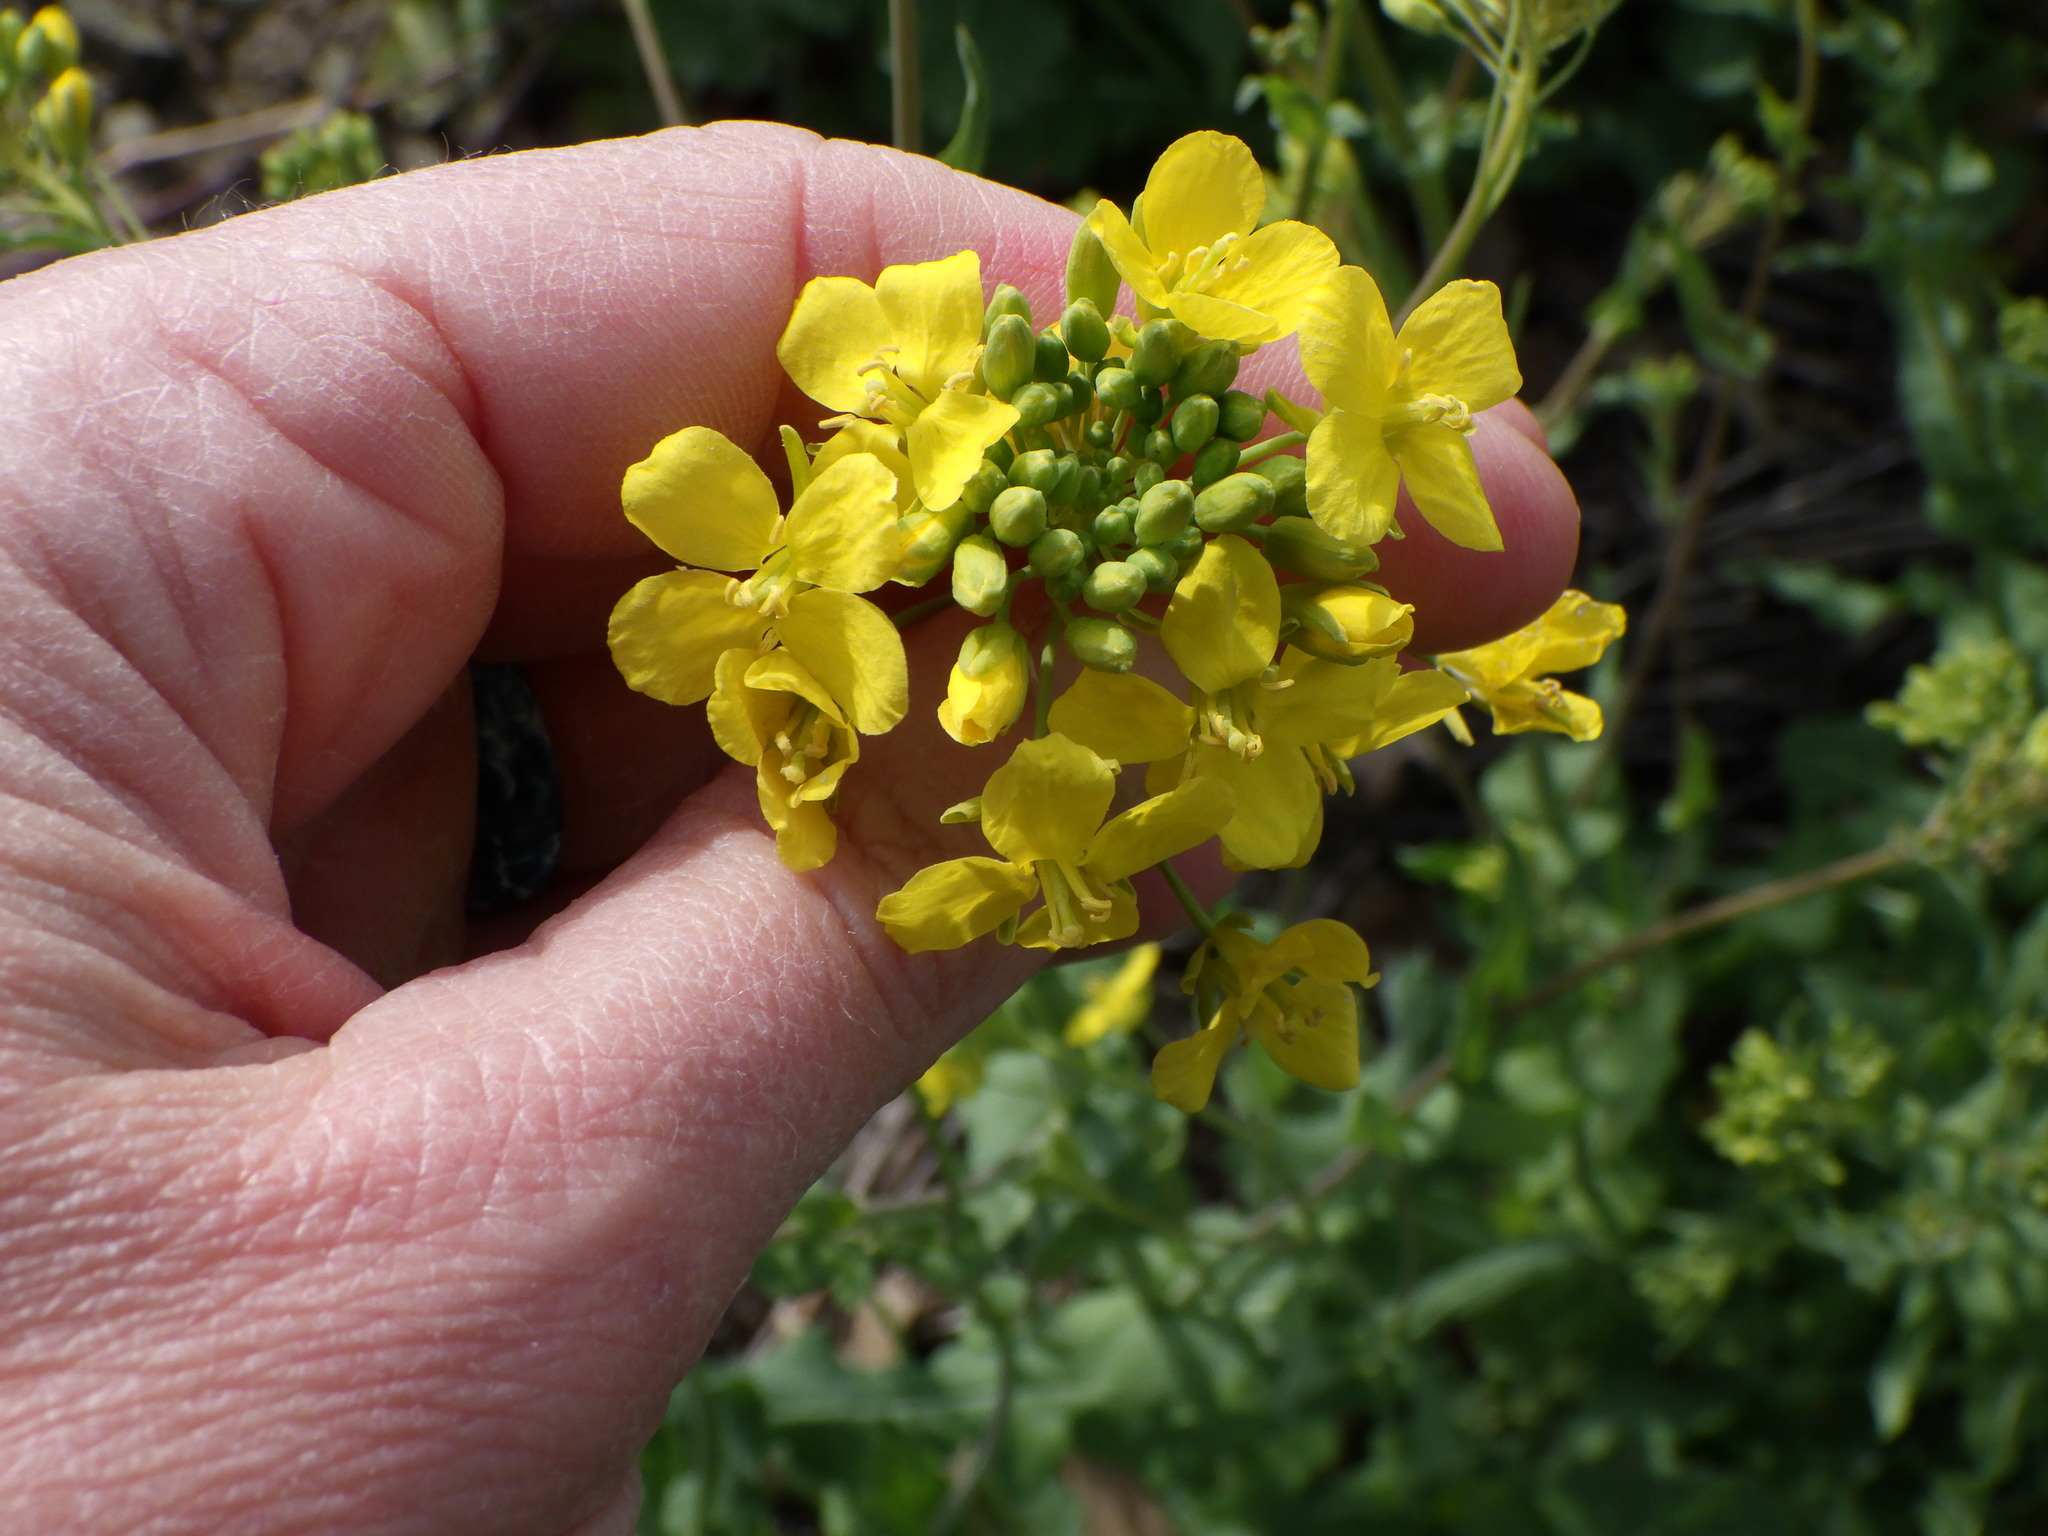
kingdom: Plantae
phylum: Tracheophyta
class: Magnoliopsida
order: Brassicales
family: Brassicaceae
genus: Brassica
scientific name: Brassica rapa
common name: Field mustard
